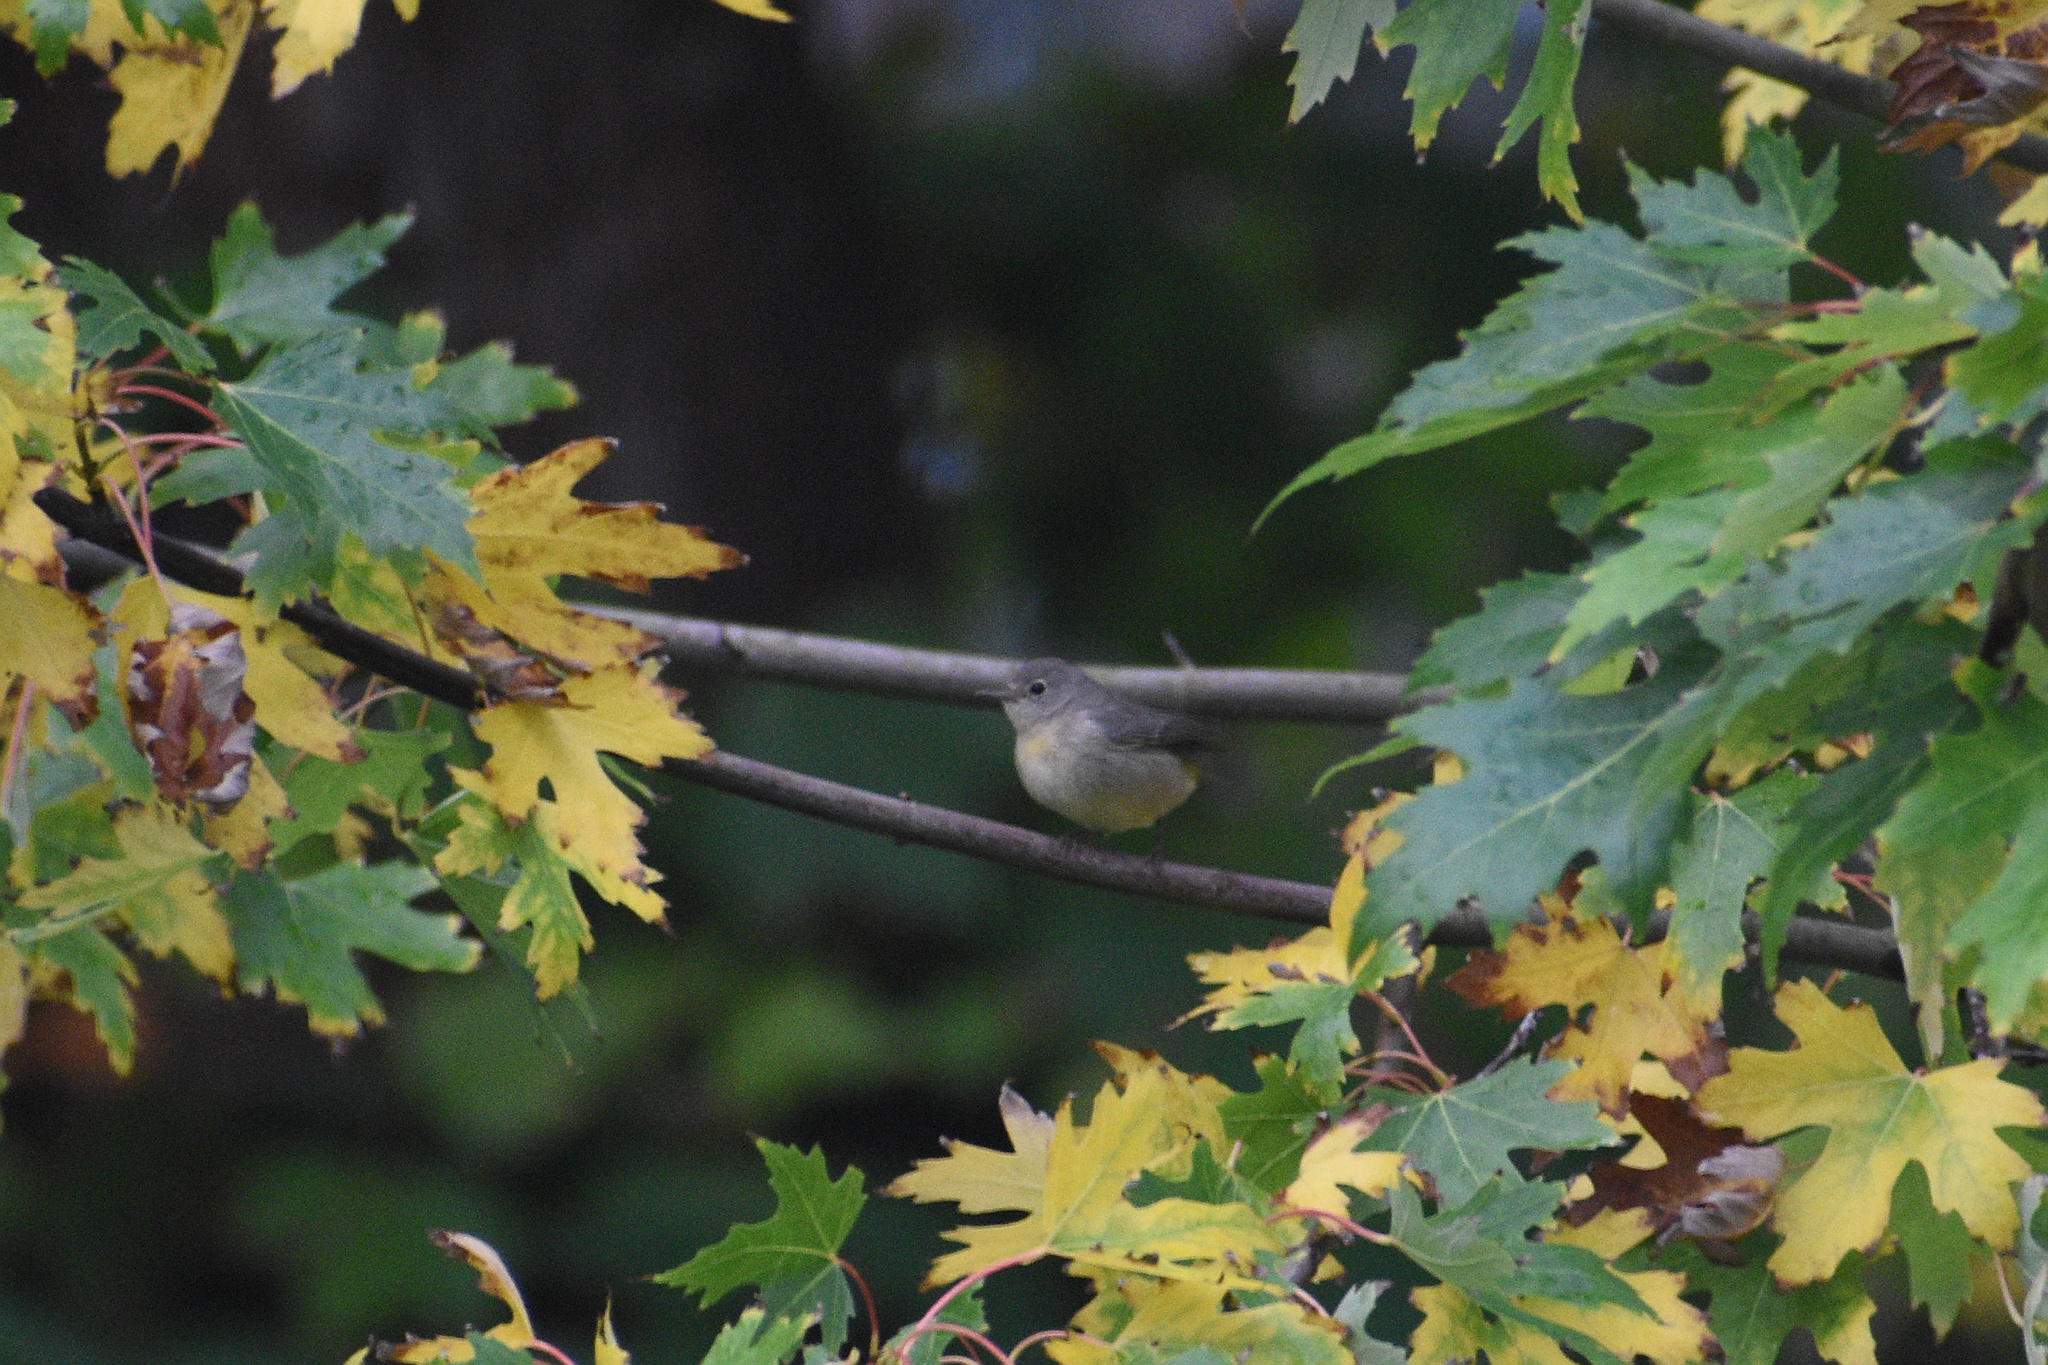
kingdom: Animalia
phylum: Chordata
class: Aves
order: Passeriformes
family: Parulidae
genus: Leiothlypis
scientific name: Leiothlypis virginiae
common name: Virginia's warbler
